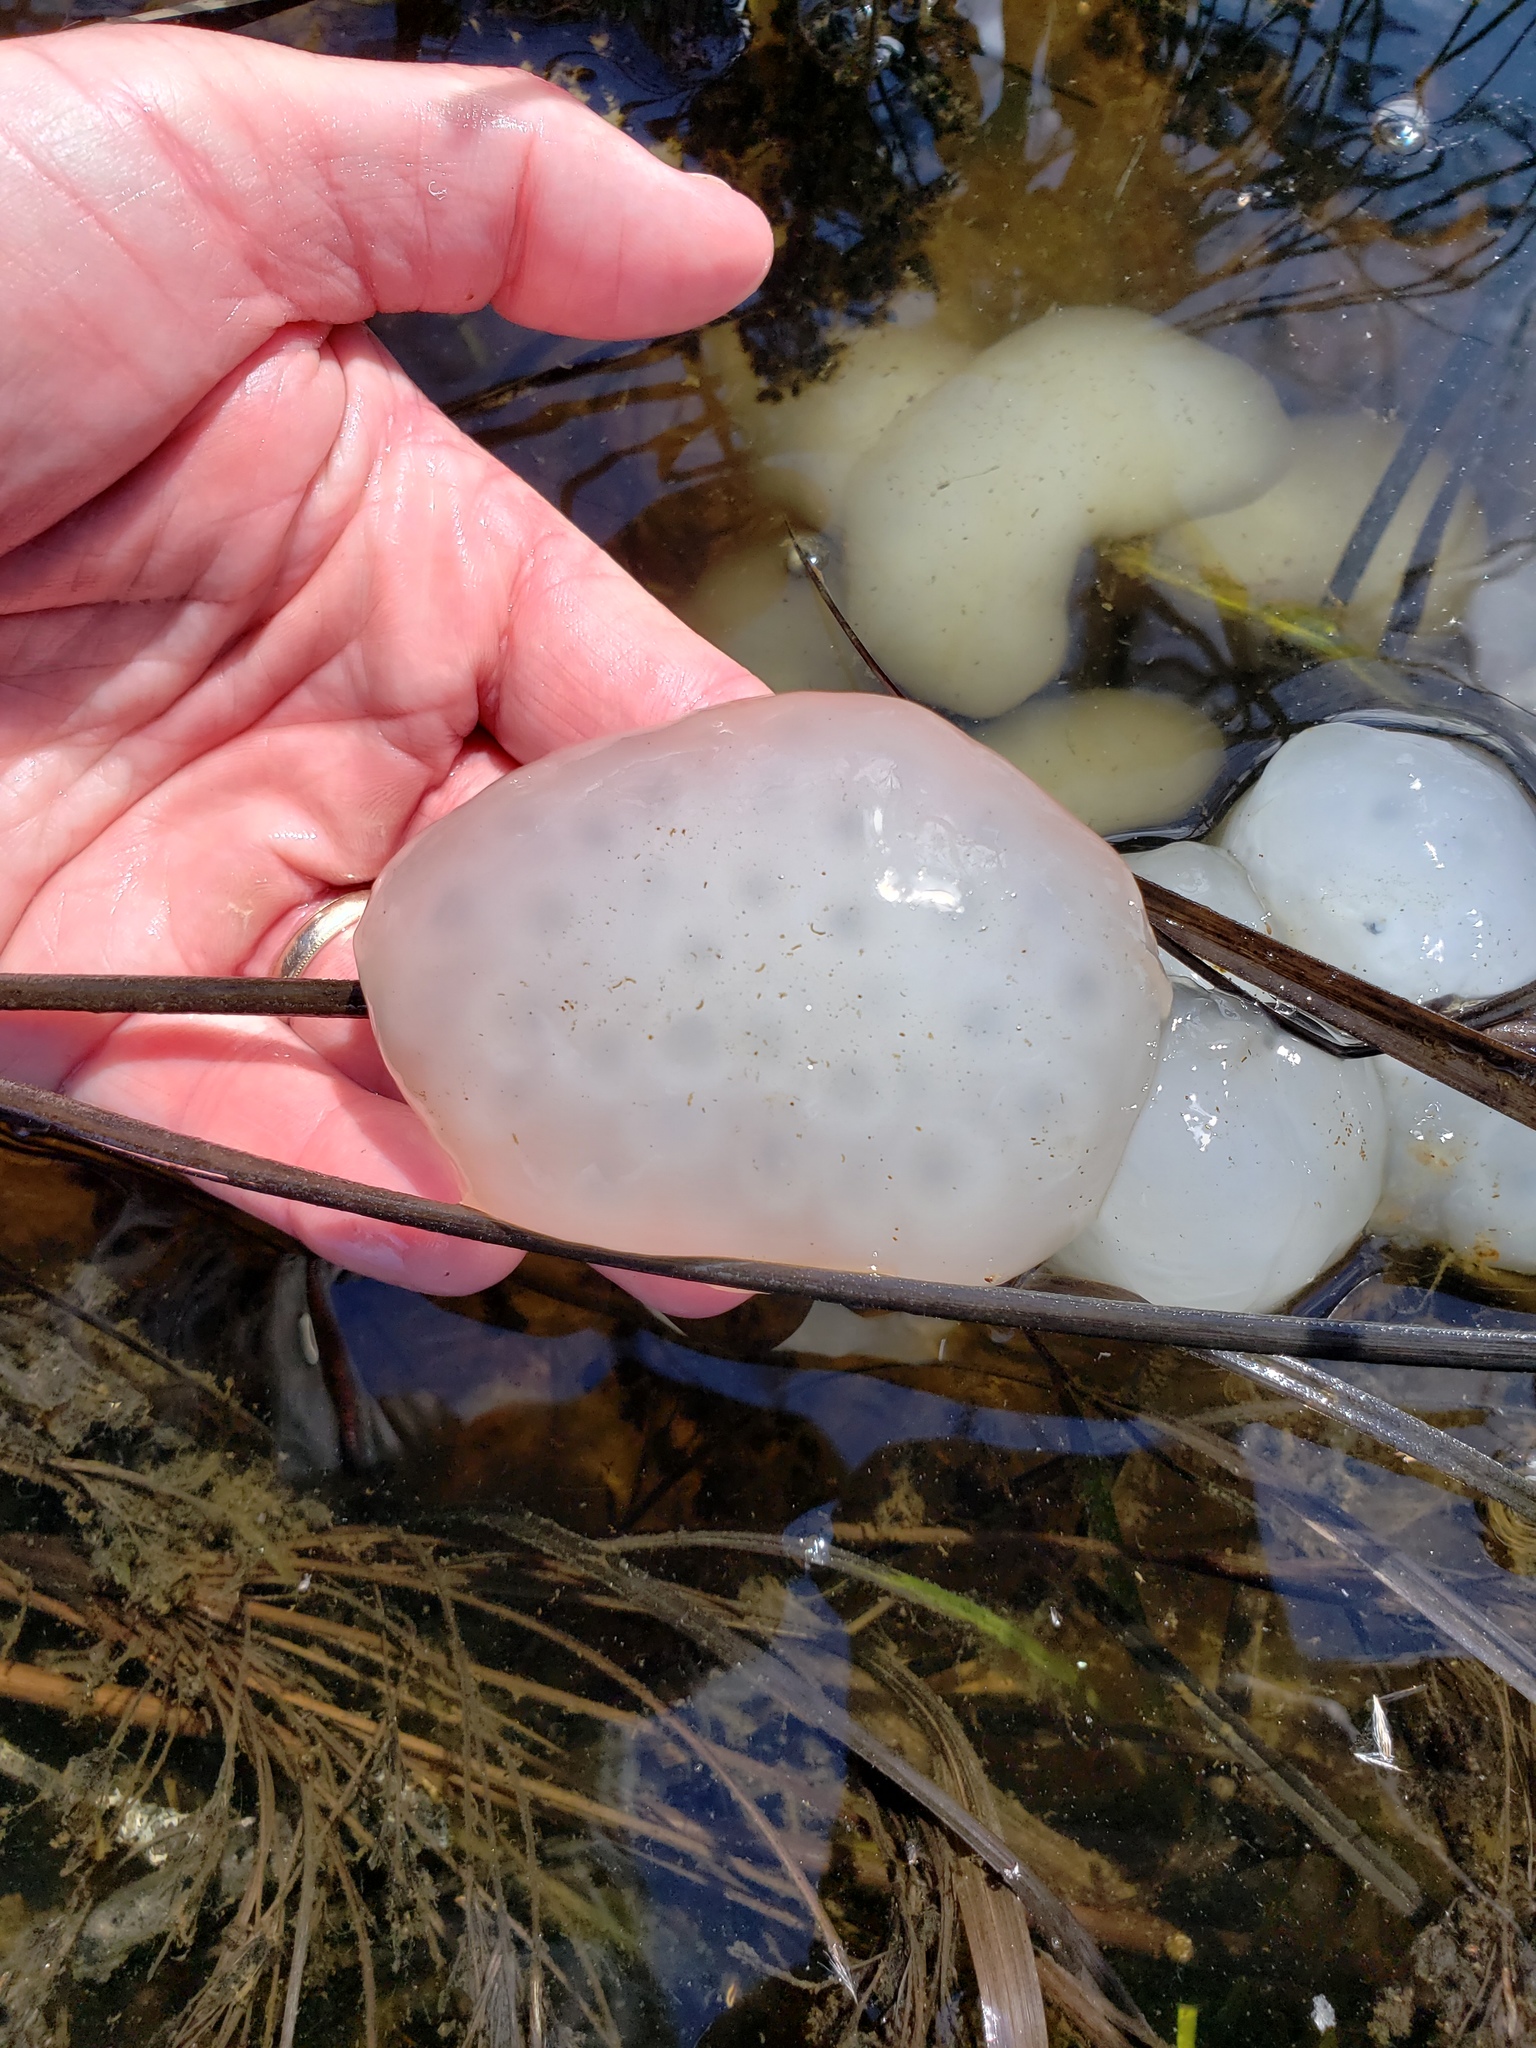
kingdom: Animalia
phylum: Chordata
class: Amphibia
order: Caudata
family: Ambystomatidae
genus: Ambystoma
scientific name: Ambystoma maculatum
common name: Spotted salamander
